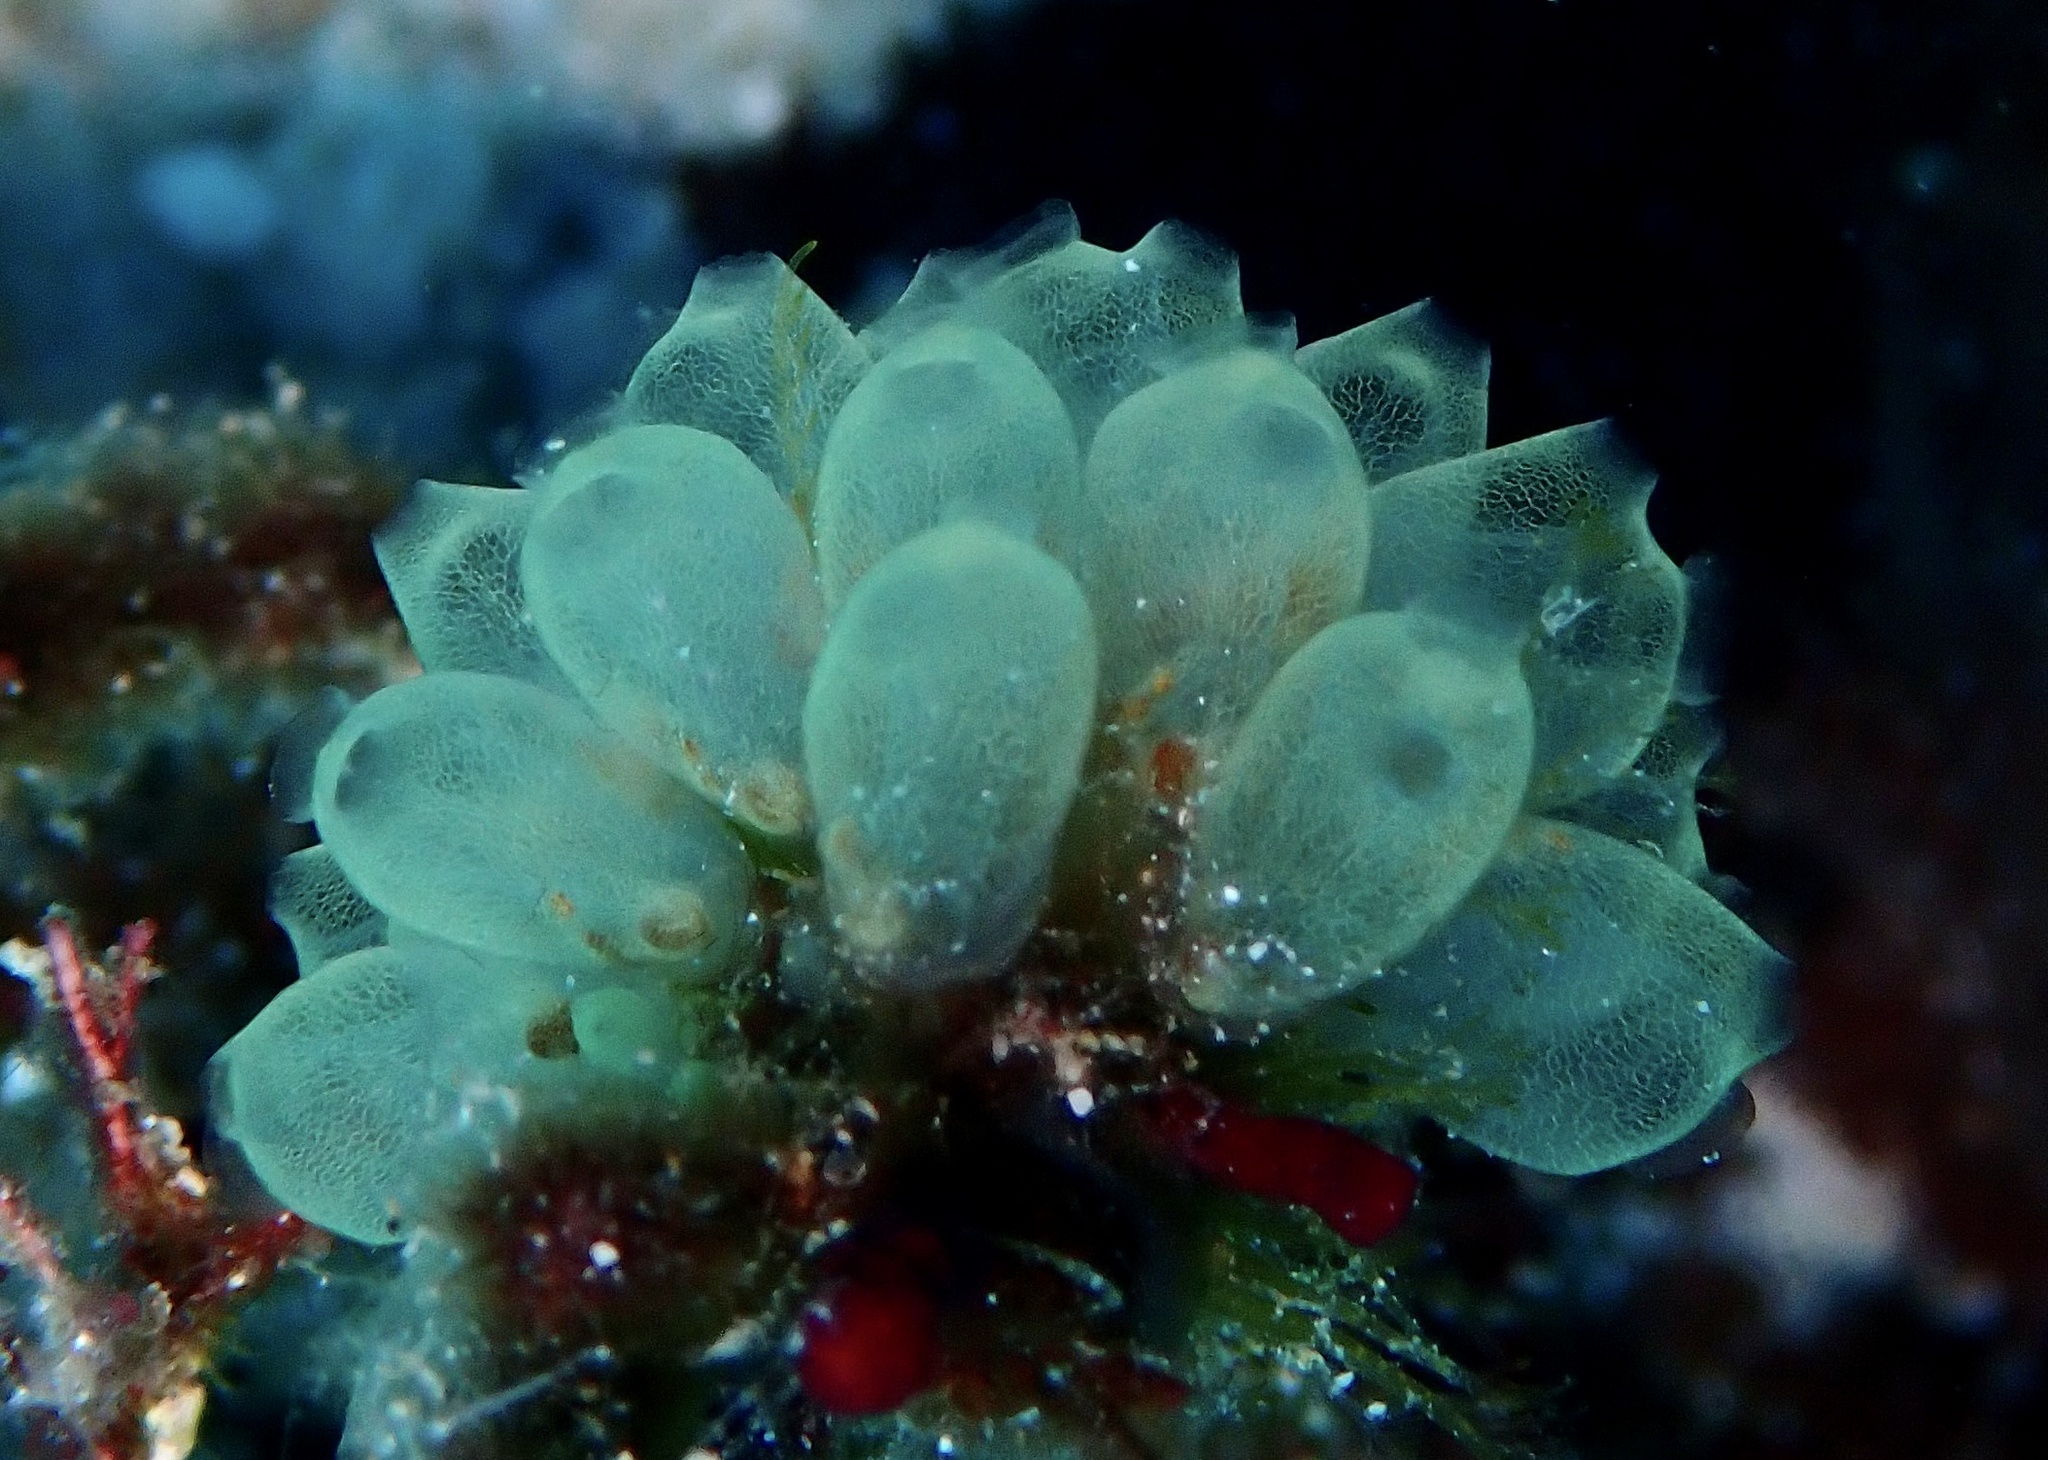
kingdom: Animalia
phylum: Chordata
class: Ascidiacea
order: Phlebobranchia
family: Perophoridae
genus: Perophora
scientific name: Perophora modificata
